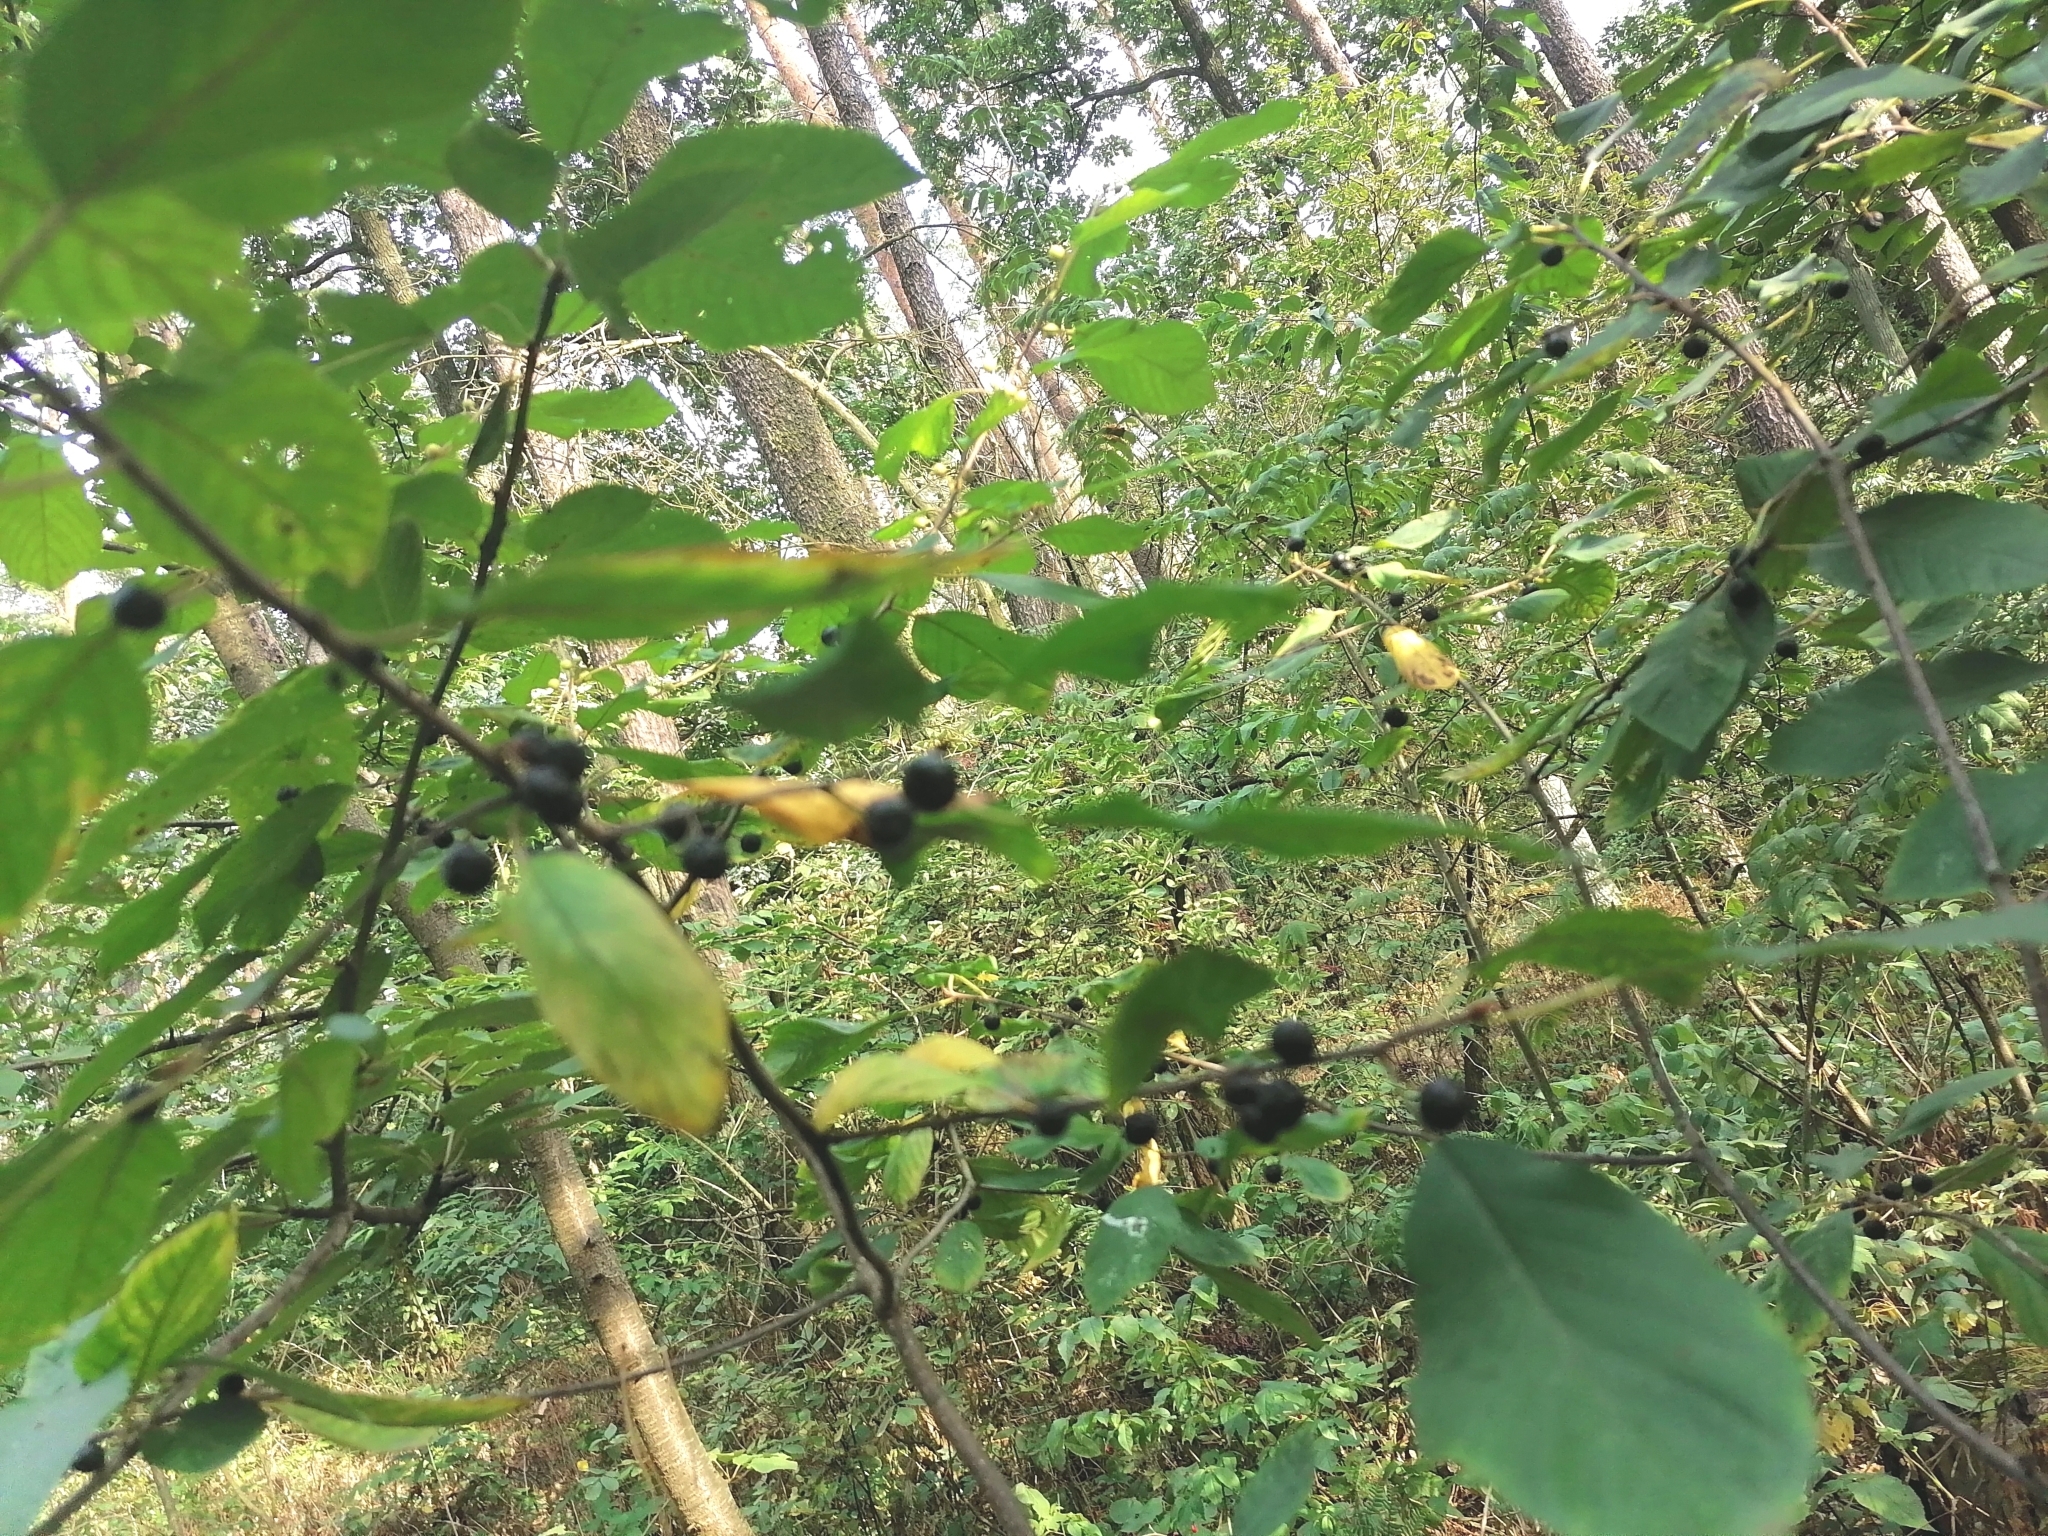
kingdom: Plantae
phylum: Tracheophyta
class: Magnoliopsida
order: Rosales
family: Rhamnaceae
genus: Frangula
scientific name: Frangula alnus
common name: Alder buckthorn
